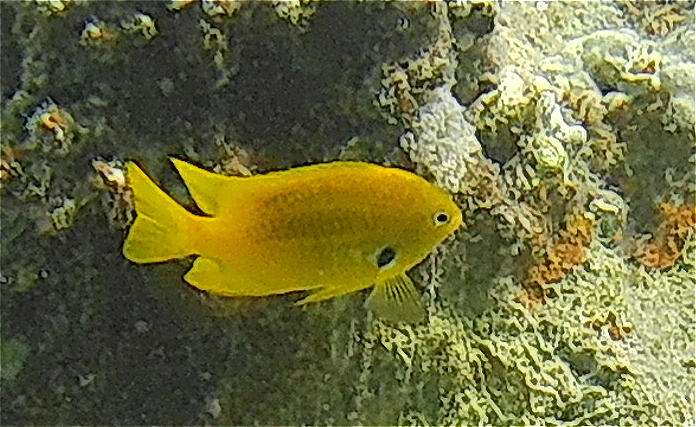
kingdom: Animalia
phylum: Chordata
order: Perciformes
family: Pomacentridae
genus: Pomacentrus
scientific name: Pomacentrus sulfureus
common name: Sulfur damsel
